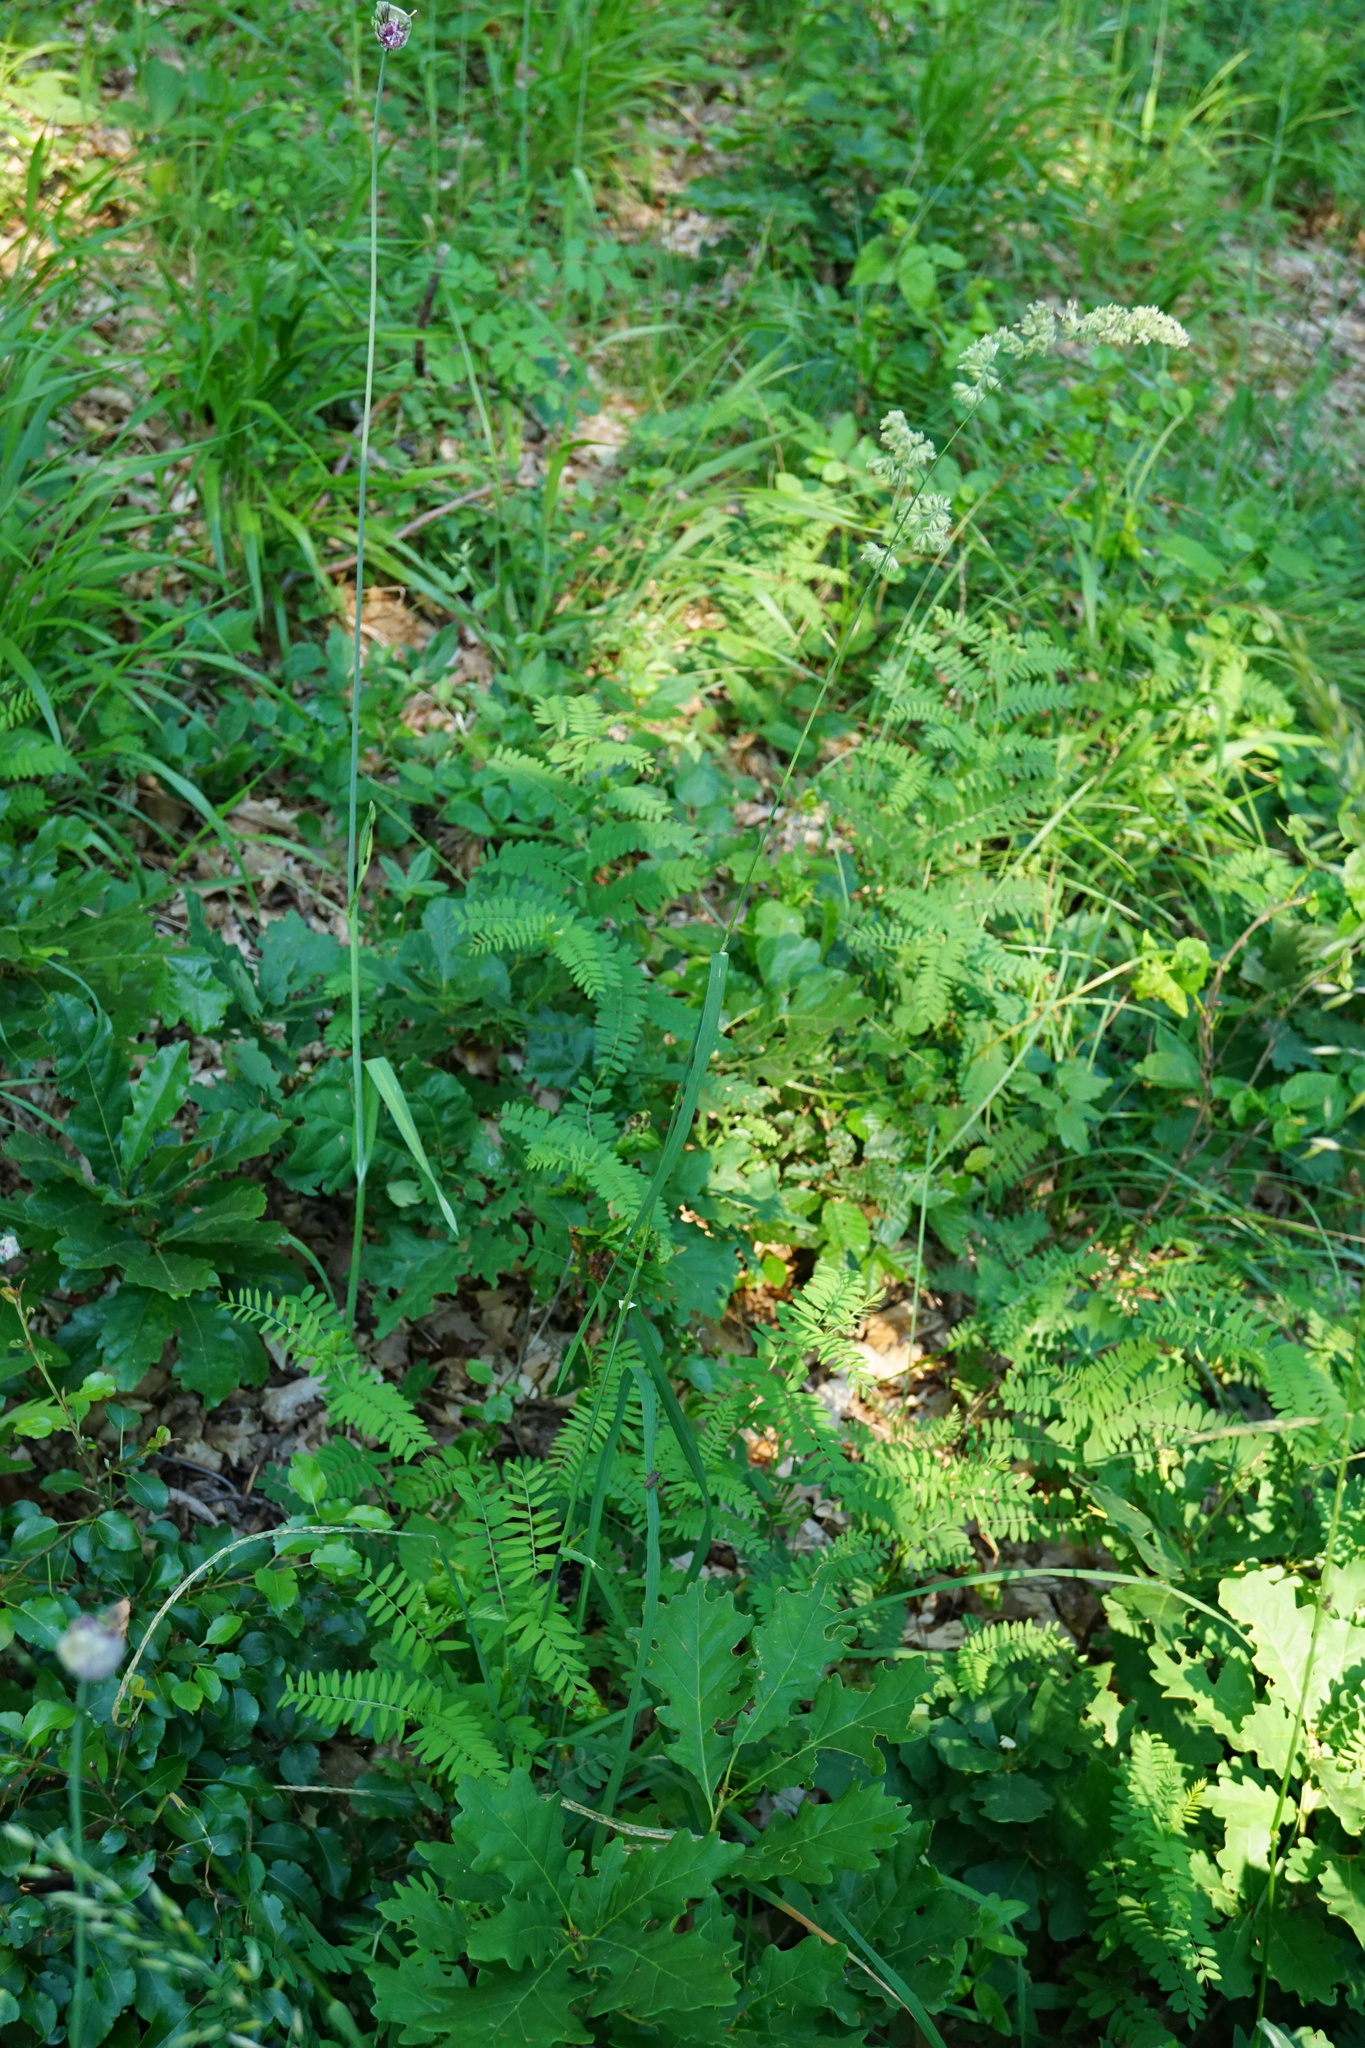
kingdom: Plantae
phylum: Tracheophyta
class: Liliopsida
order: Poales
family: Poaceae
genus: Dactylis
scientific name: Dactylis glomerata
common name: Orchardgrass
